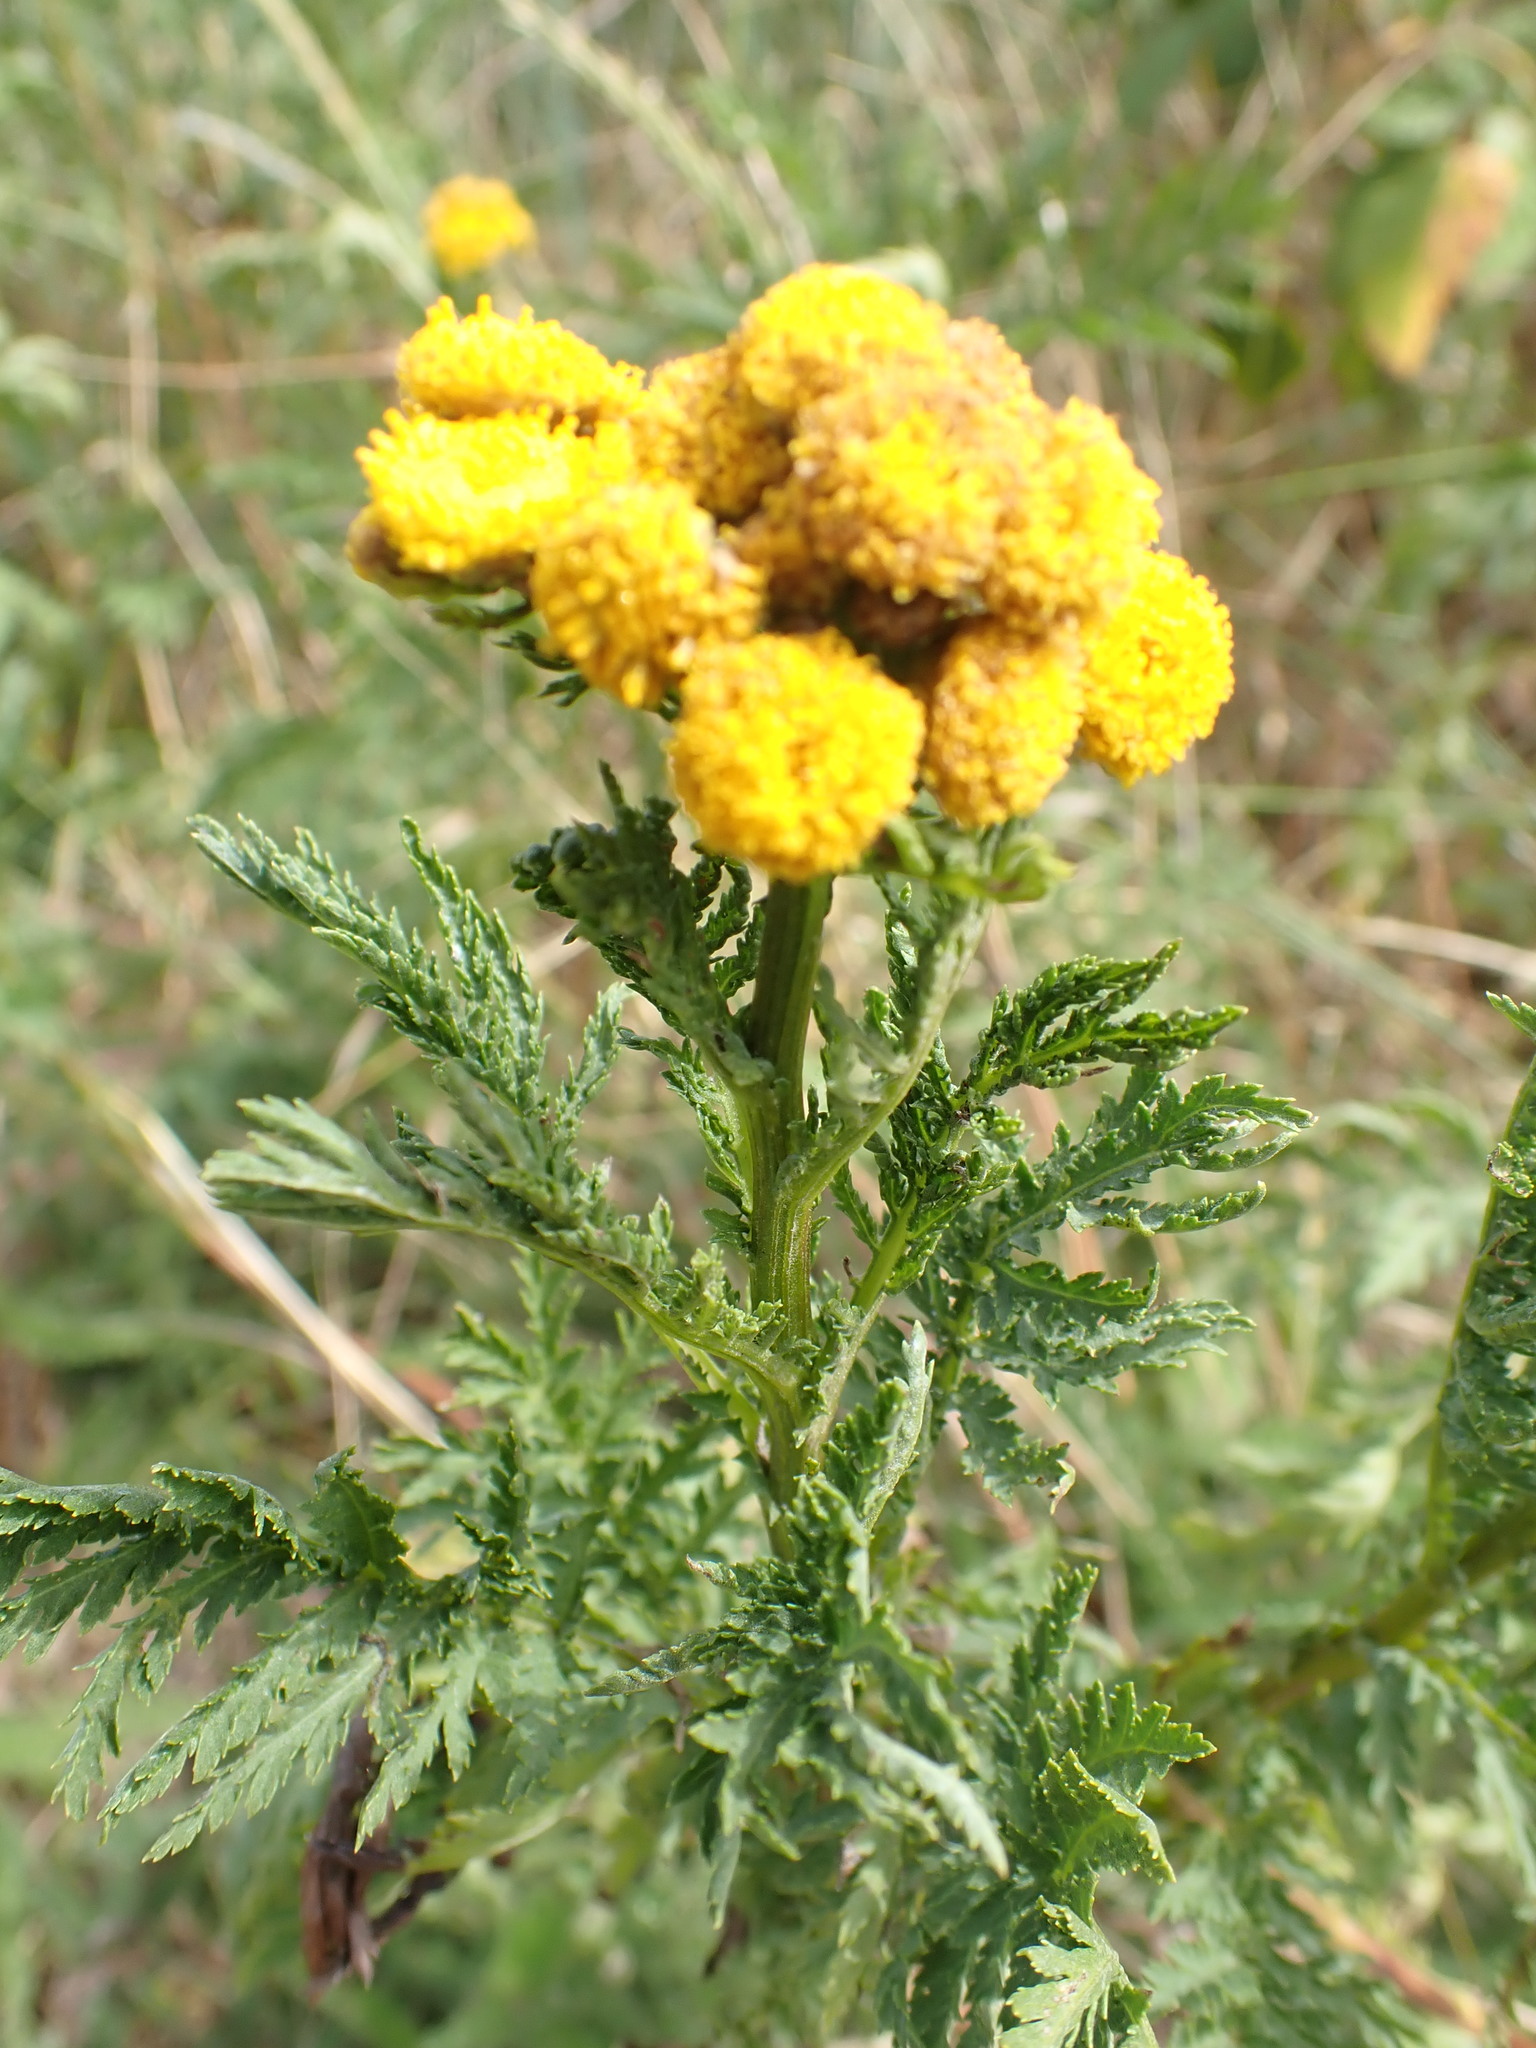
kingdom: Plantae
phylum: Tracheophyta
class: Magnoliopsida
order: Asterales
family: Asteraceae
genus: Tanacetum
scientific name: Tanacetum vulgare
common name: Common tansy
